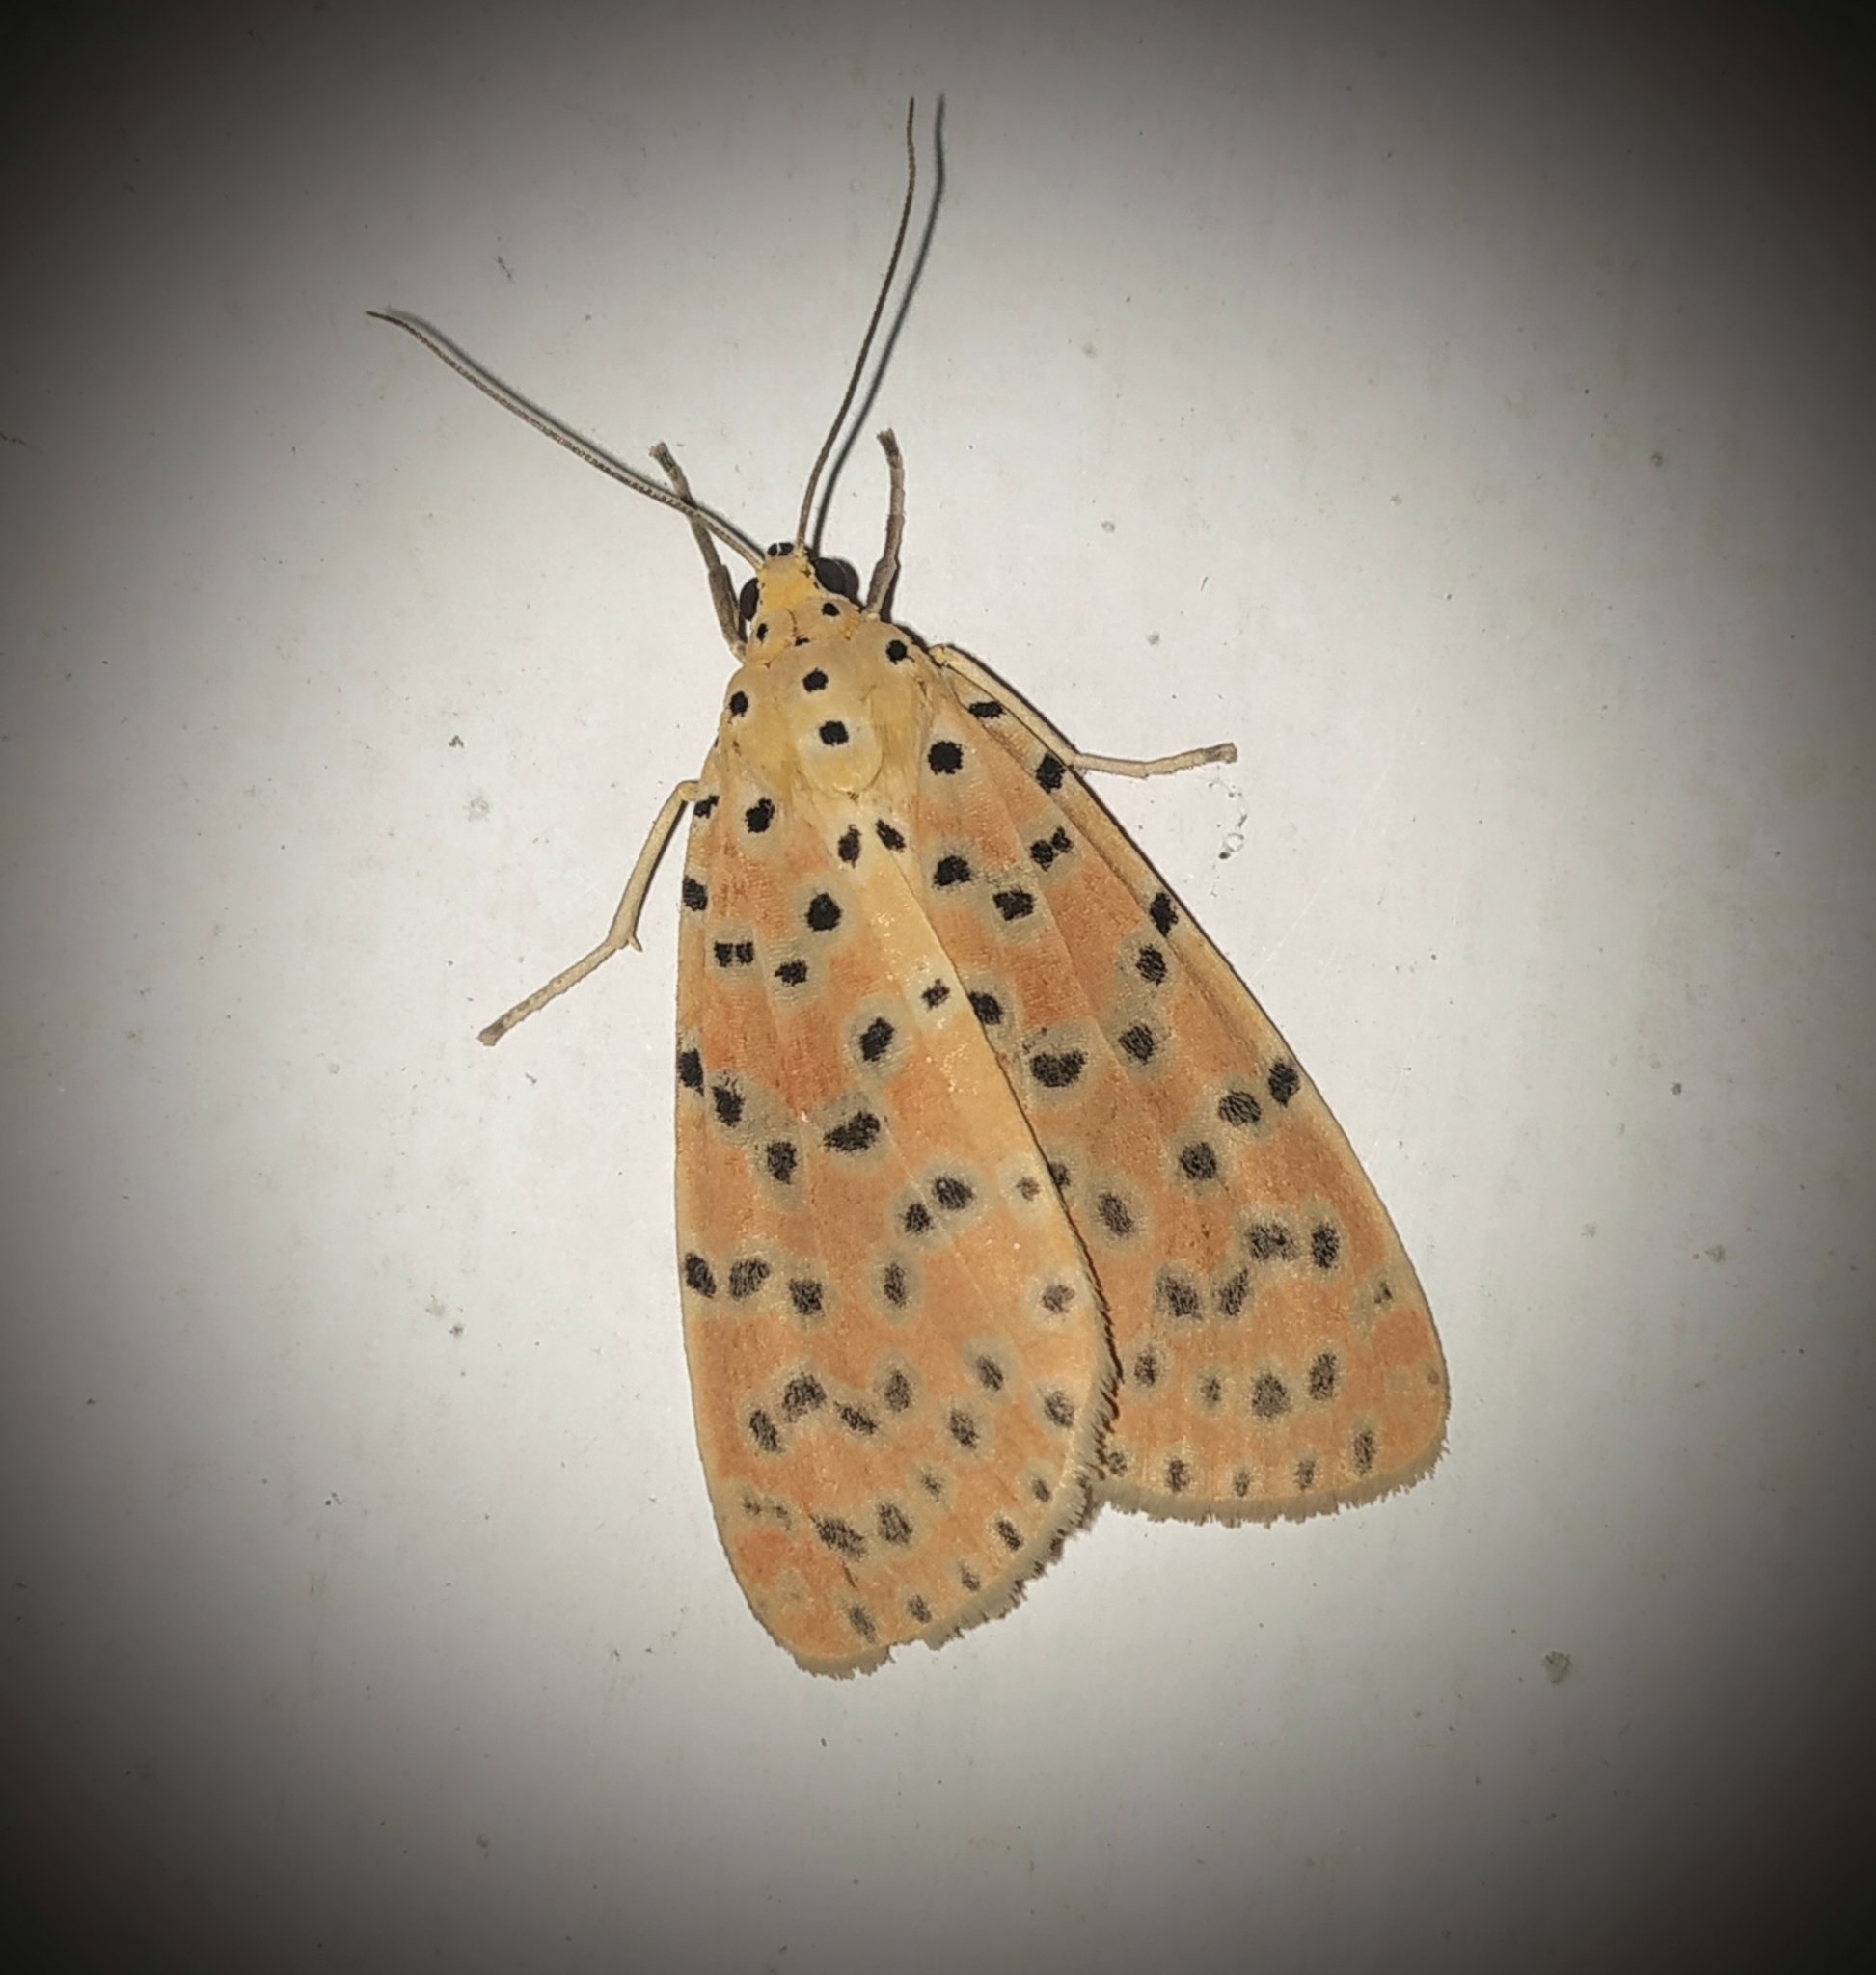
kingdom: Animalia
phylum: Arthropoda
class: Insecta
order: Lepidoptera
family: Erebidae
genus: Argina
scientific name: Argina astrea
